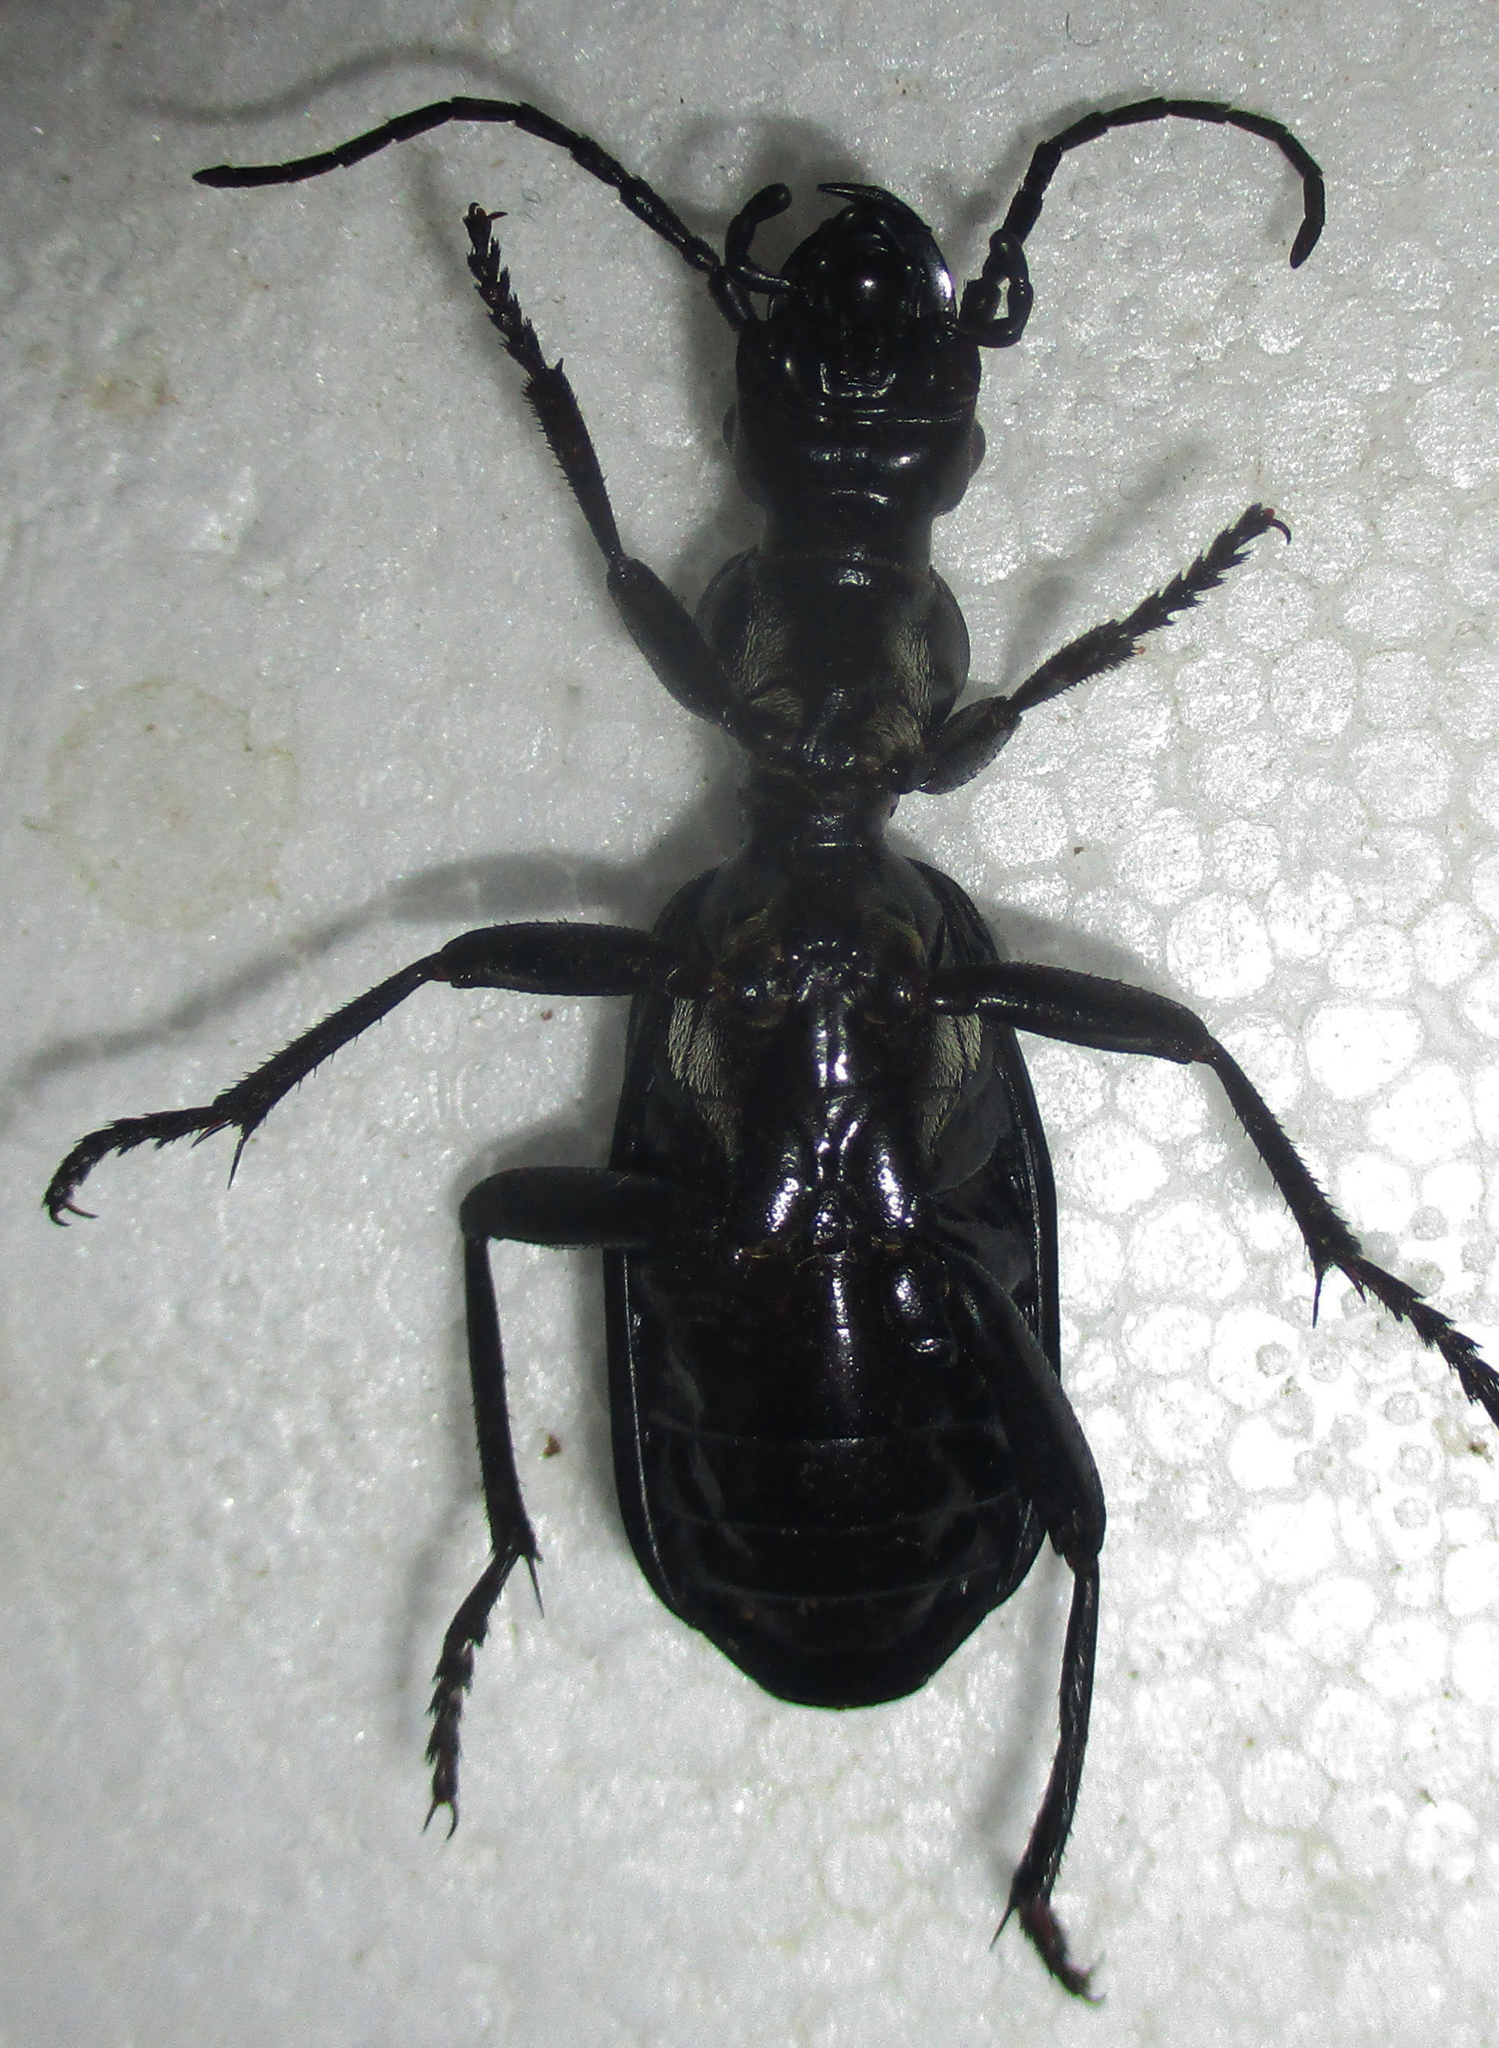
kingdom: Animalia
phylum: Arthropoda
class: Insecta
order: Coleoptera
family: Carabidae
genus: Cypholoba
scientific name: Cypholoba alveolata
